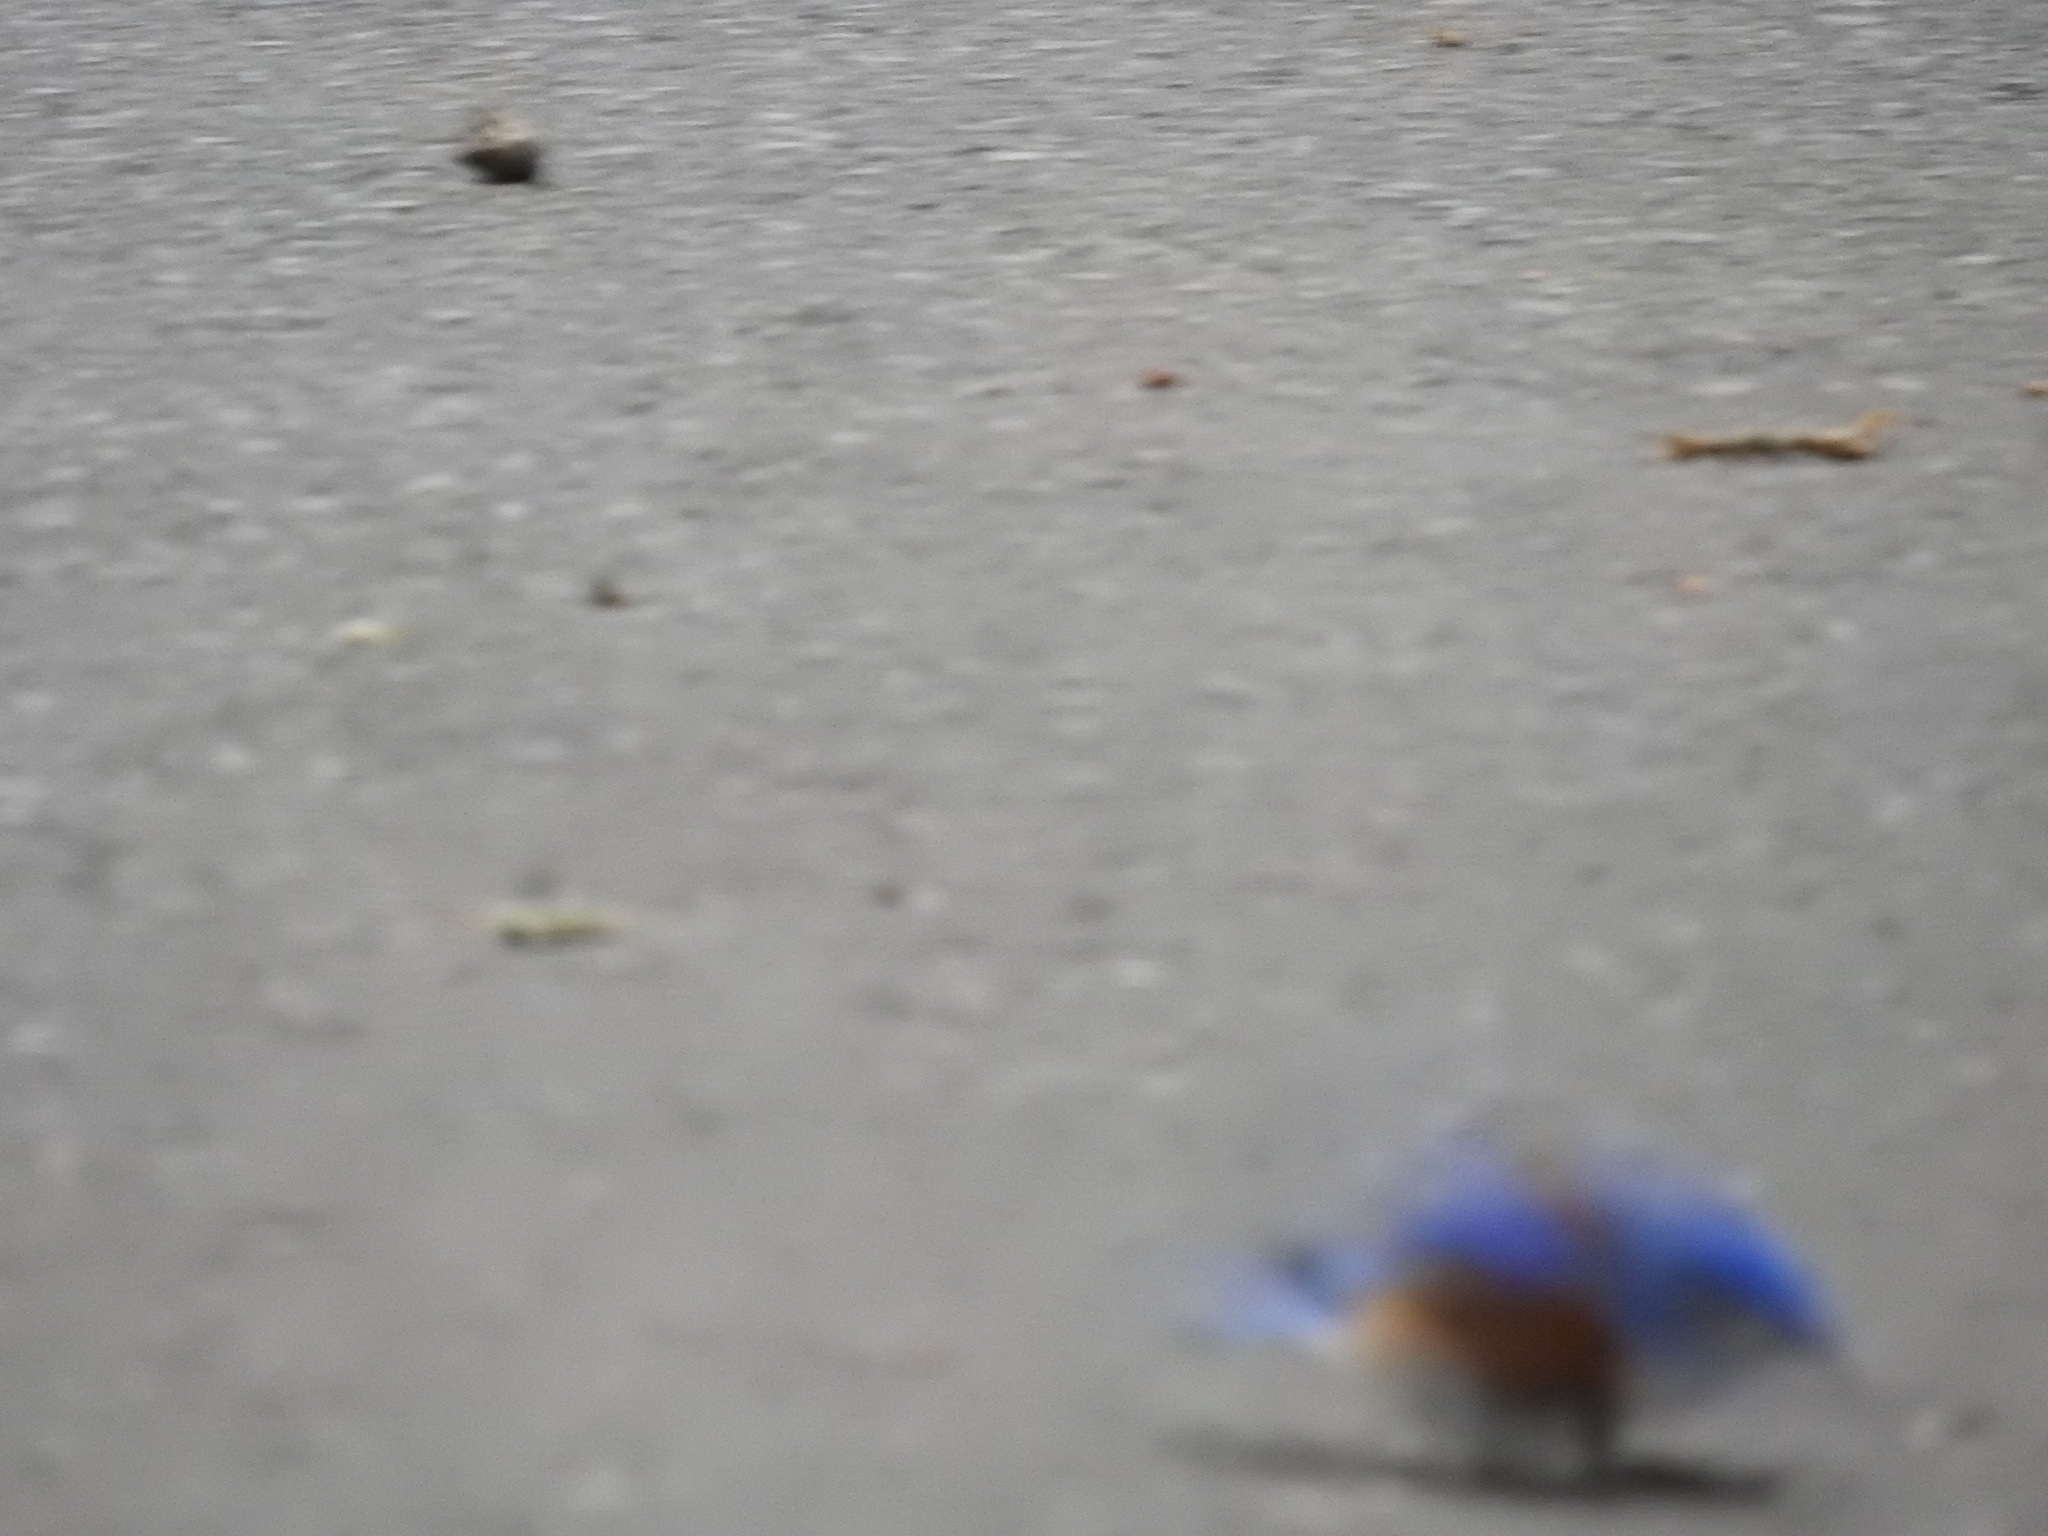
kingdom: Animalia
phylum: Chordata
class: Aves
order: Passeriformes
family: Turdidae
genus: Sialia
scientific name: Sialia mexicana
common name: Western bluebird
